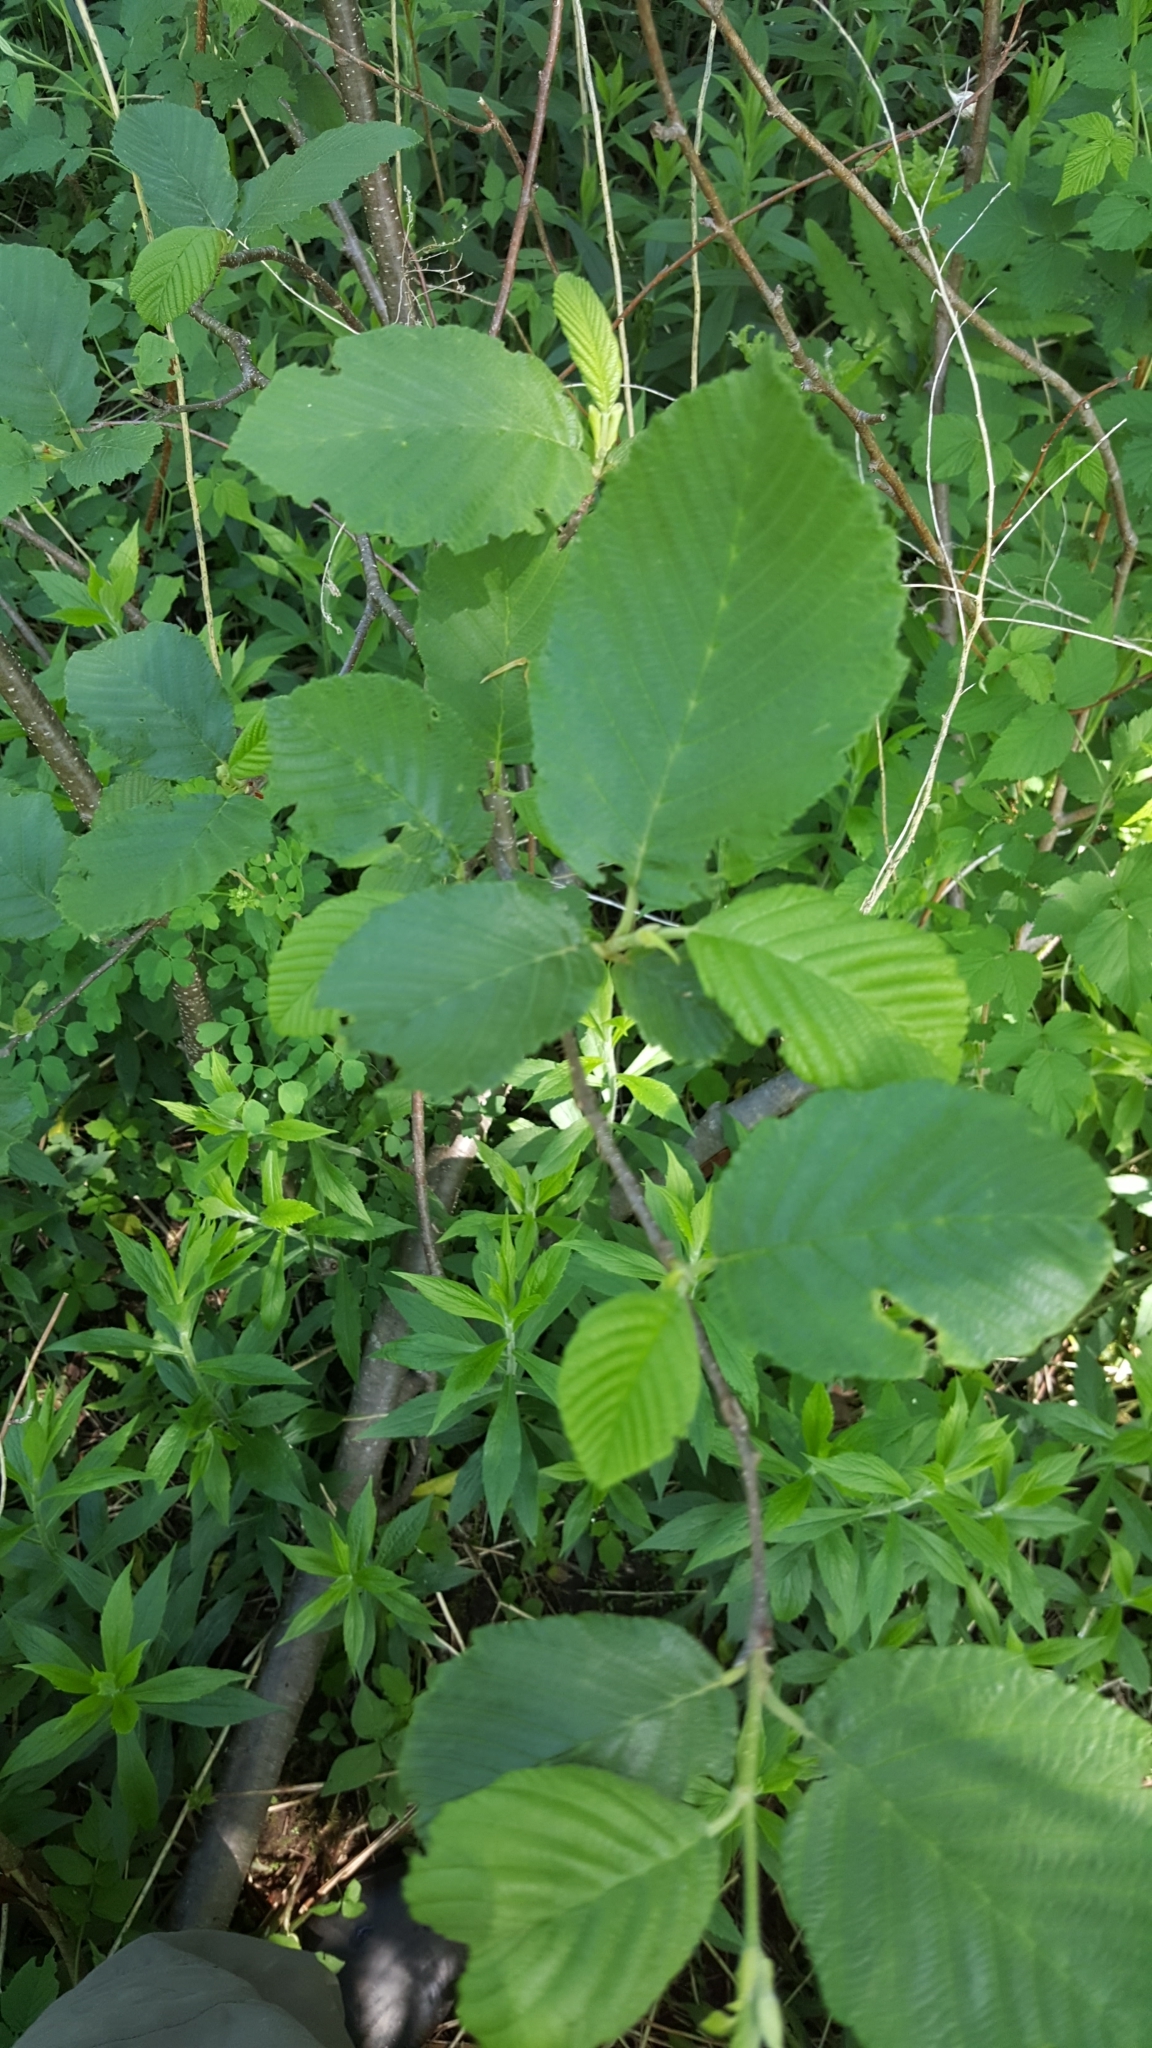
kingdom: Plantae
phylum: Tracheophyta
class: Magnoliopsida
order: Fagales
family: Betulaceae
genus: Alnus
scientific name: Alnus incana
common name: Grey alder
